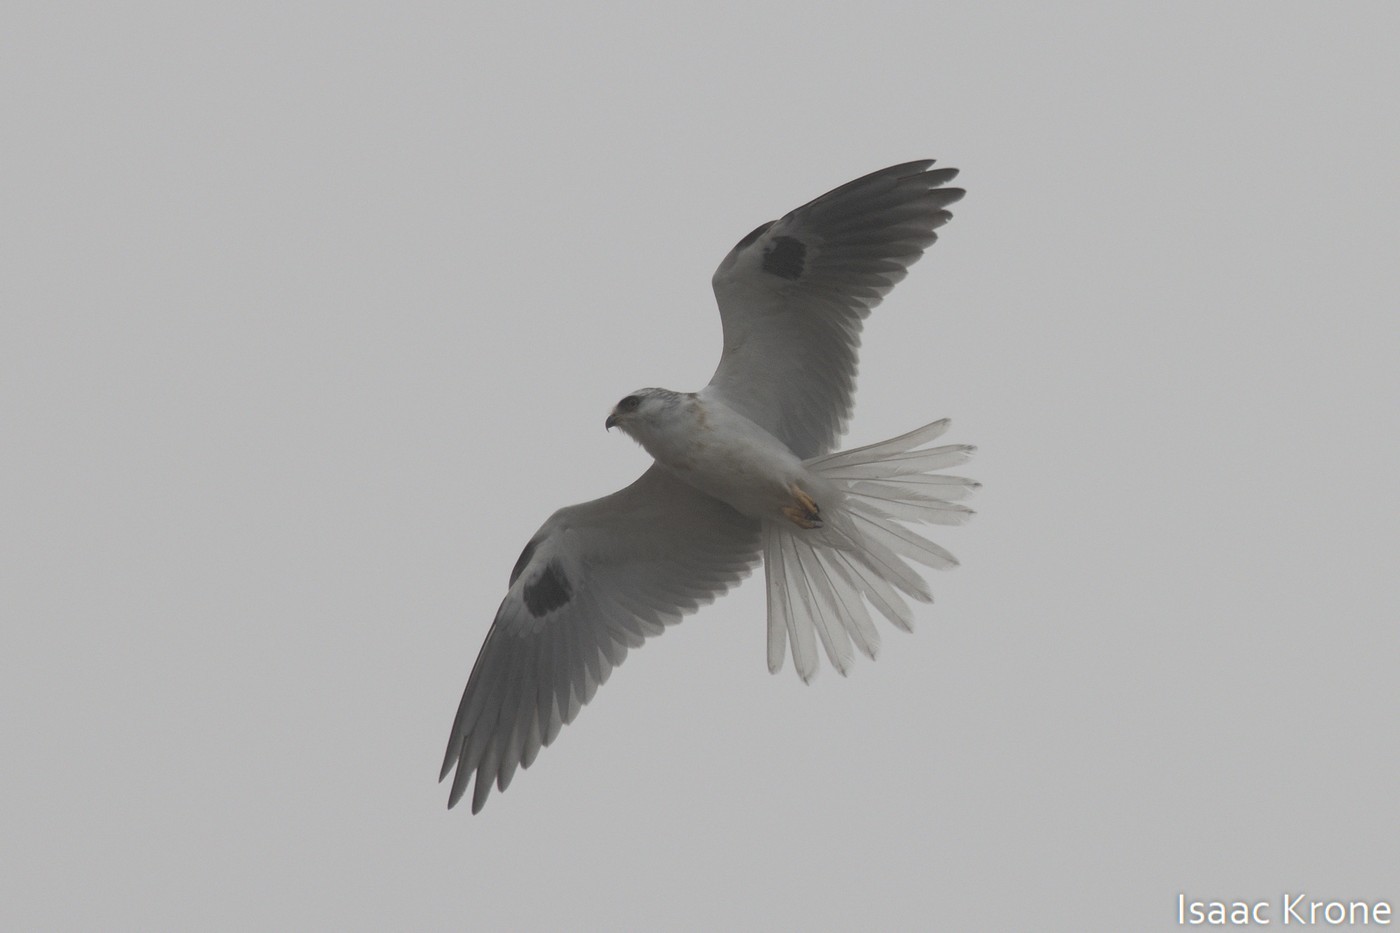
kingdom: Animalia
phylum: Chordata
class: Aves
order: Accipitriformes
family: Accipitridae
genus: Elanus
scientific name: Elanus leucurus
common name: White-tailed kite
